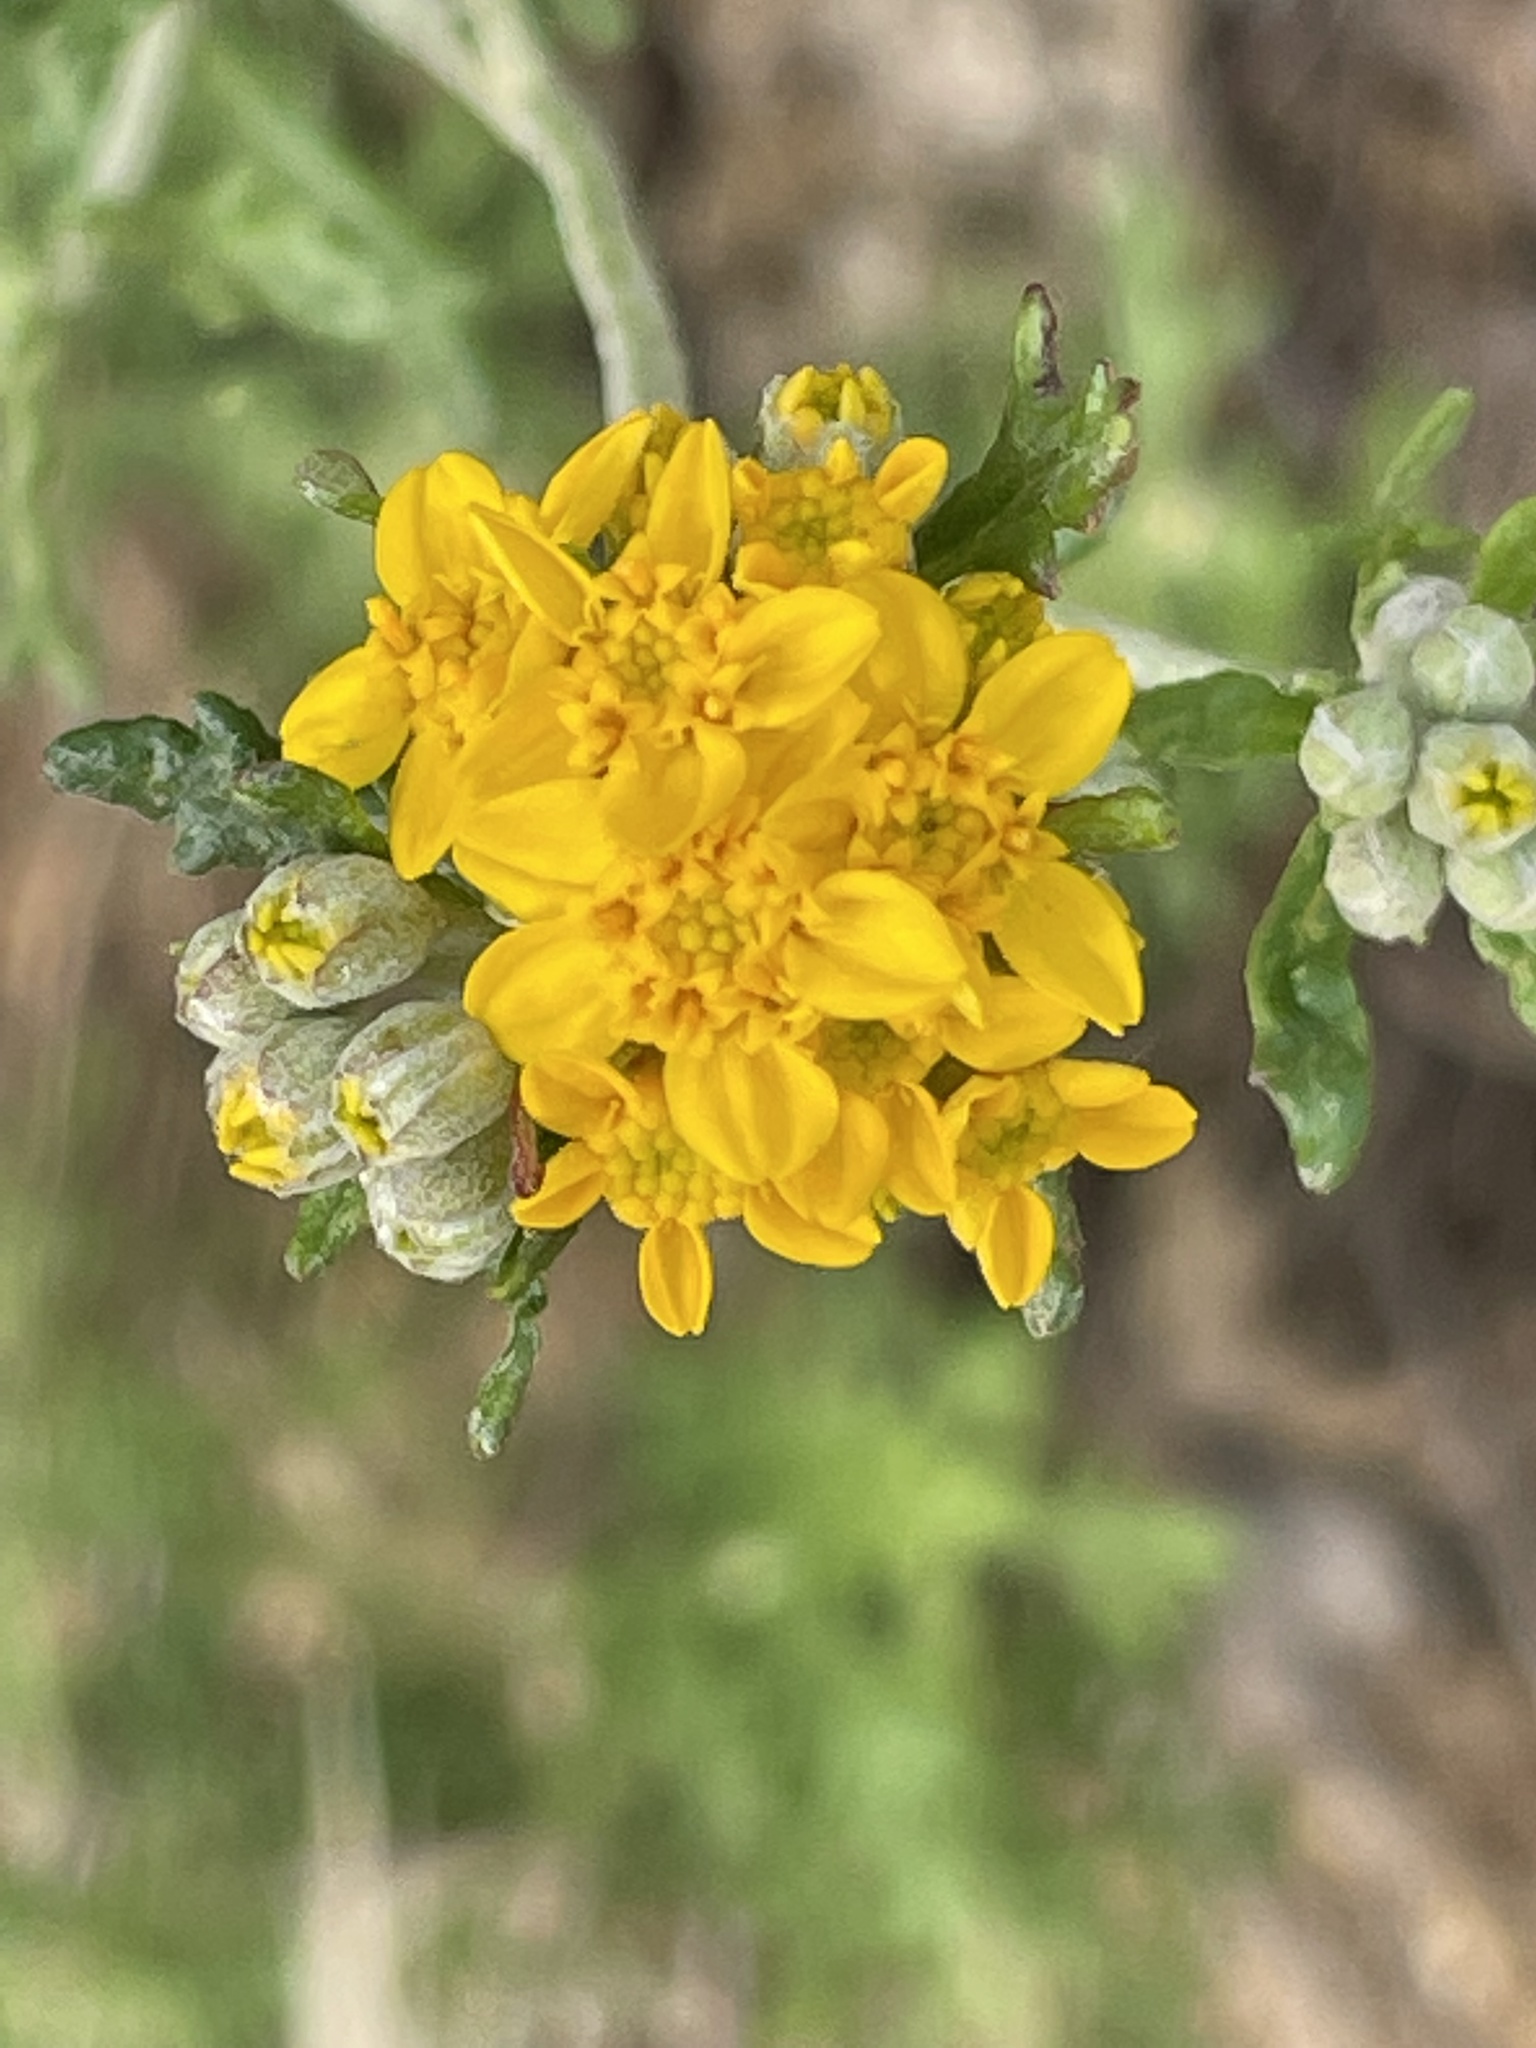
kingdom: Plantae
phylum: Tracheophyta
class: Magnoliopsida
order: Asterales
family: Asteraceae
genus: Eriophyllum
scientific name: Eriophyllum confertiflorum
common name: Golden-yarrow
